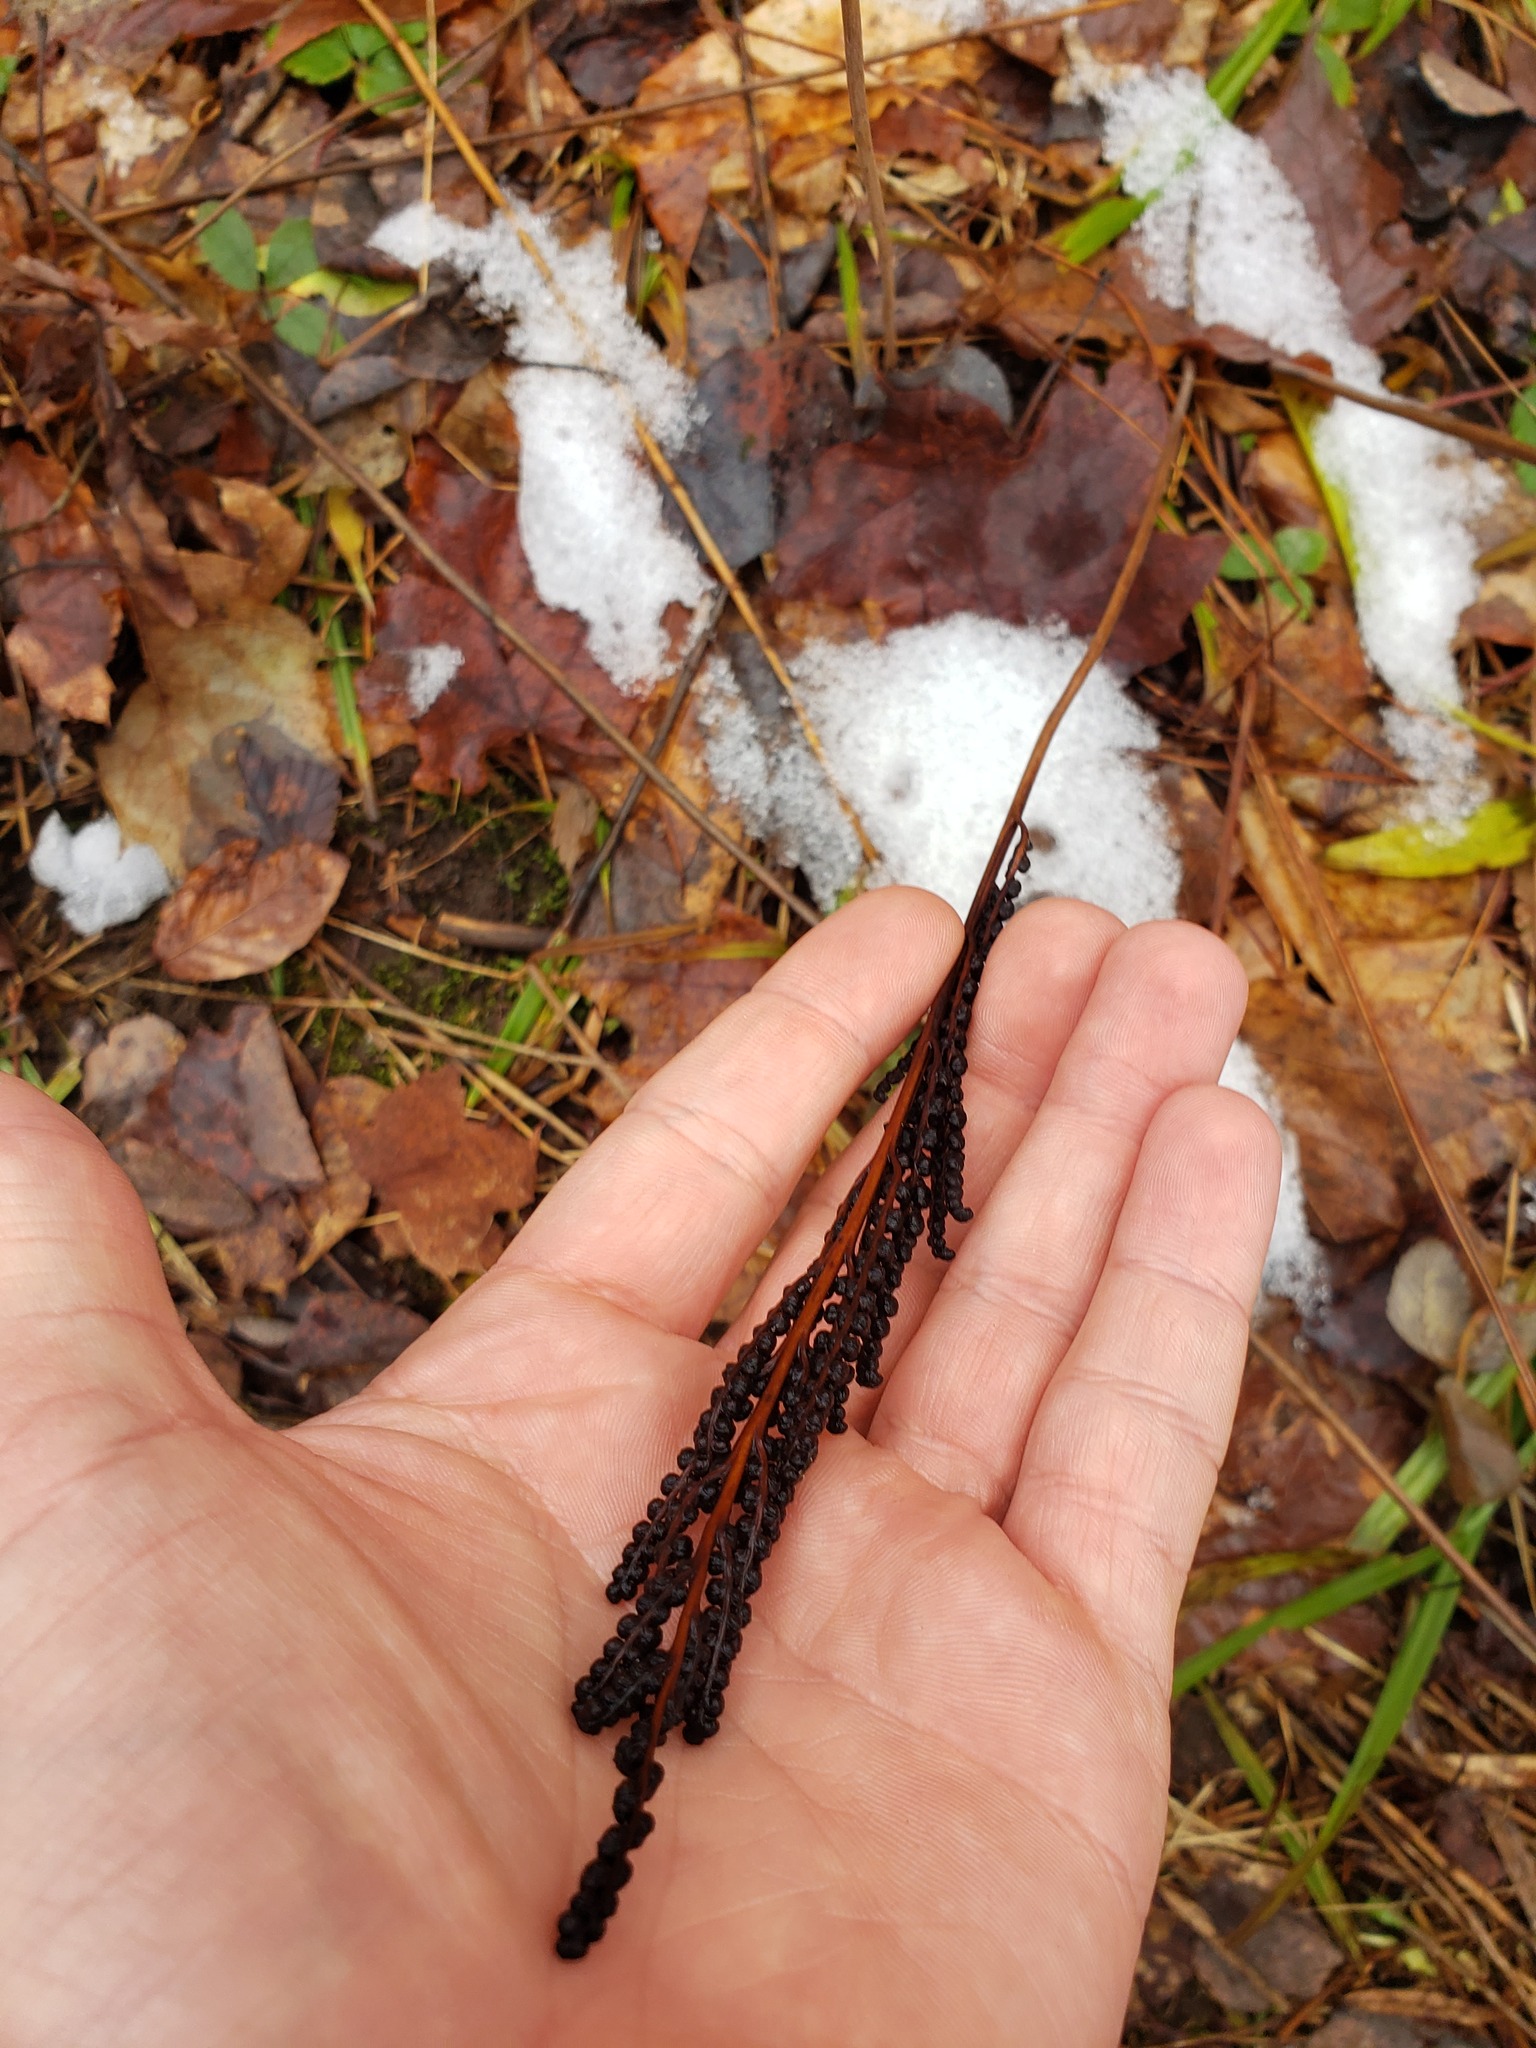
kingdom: Plantae
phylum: Tracheophyta
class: Polypodiopsida
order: Polypodiales
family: Onocleaceae
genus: Onoclea
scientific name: Onoclea sensibilis
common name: Sensitive fern
